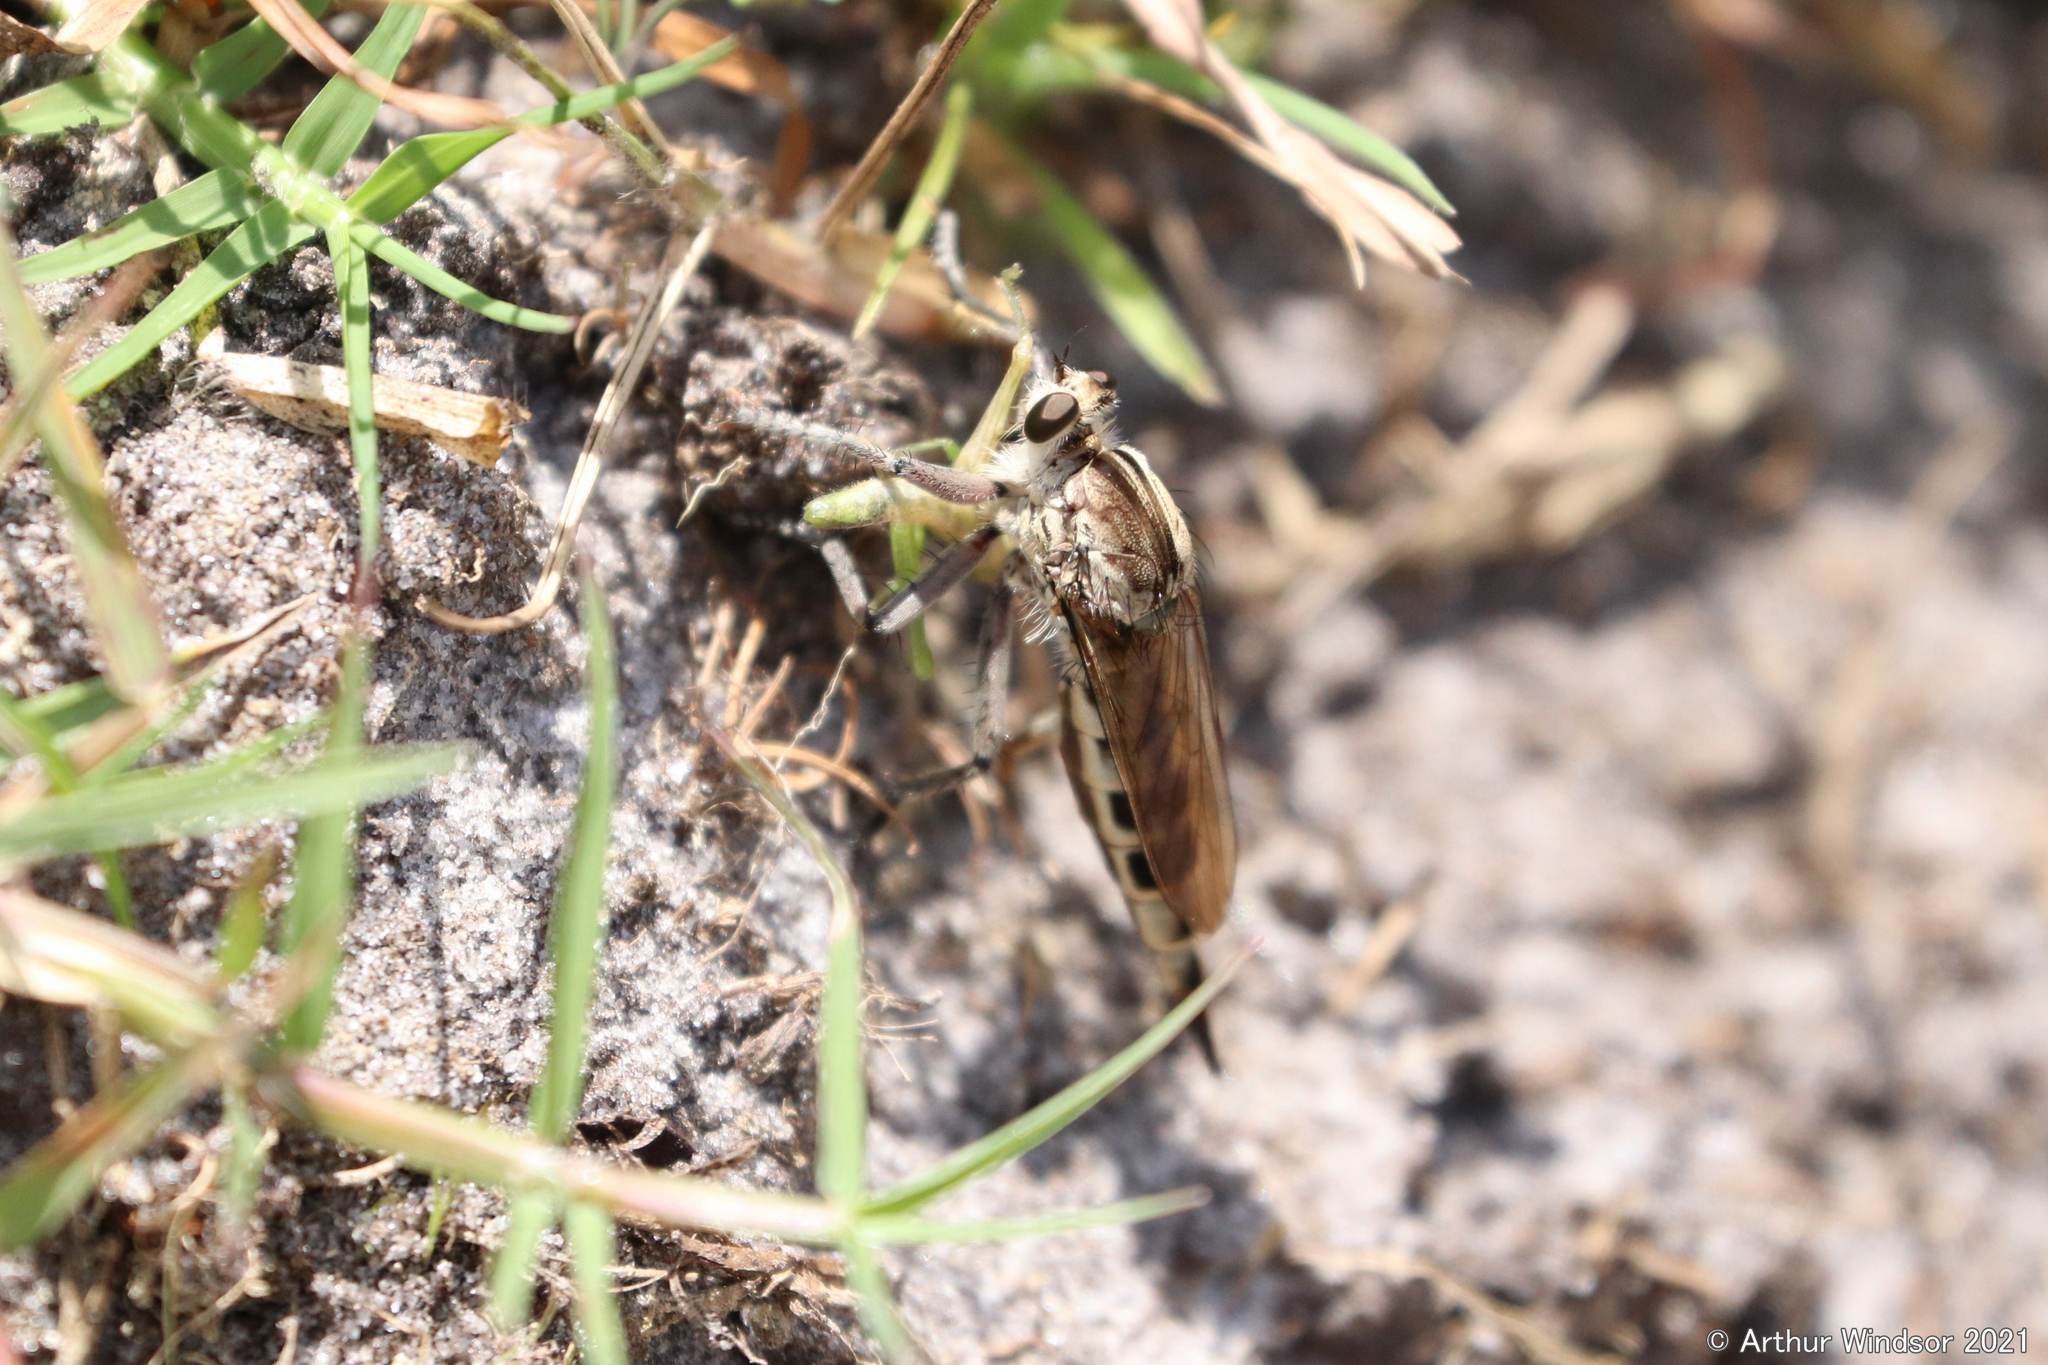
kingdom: Animalia
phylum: Arthropoda
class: Insecta
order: Diptera
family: Asilidae
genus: Triorla
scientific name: Triorla interrupta
